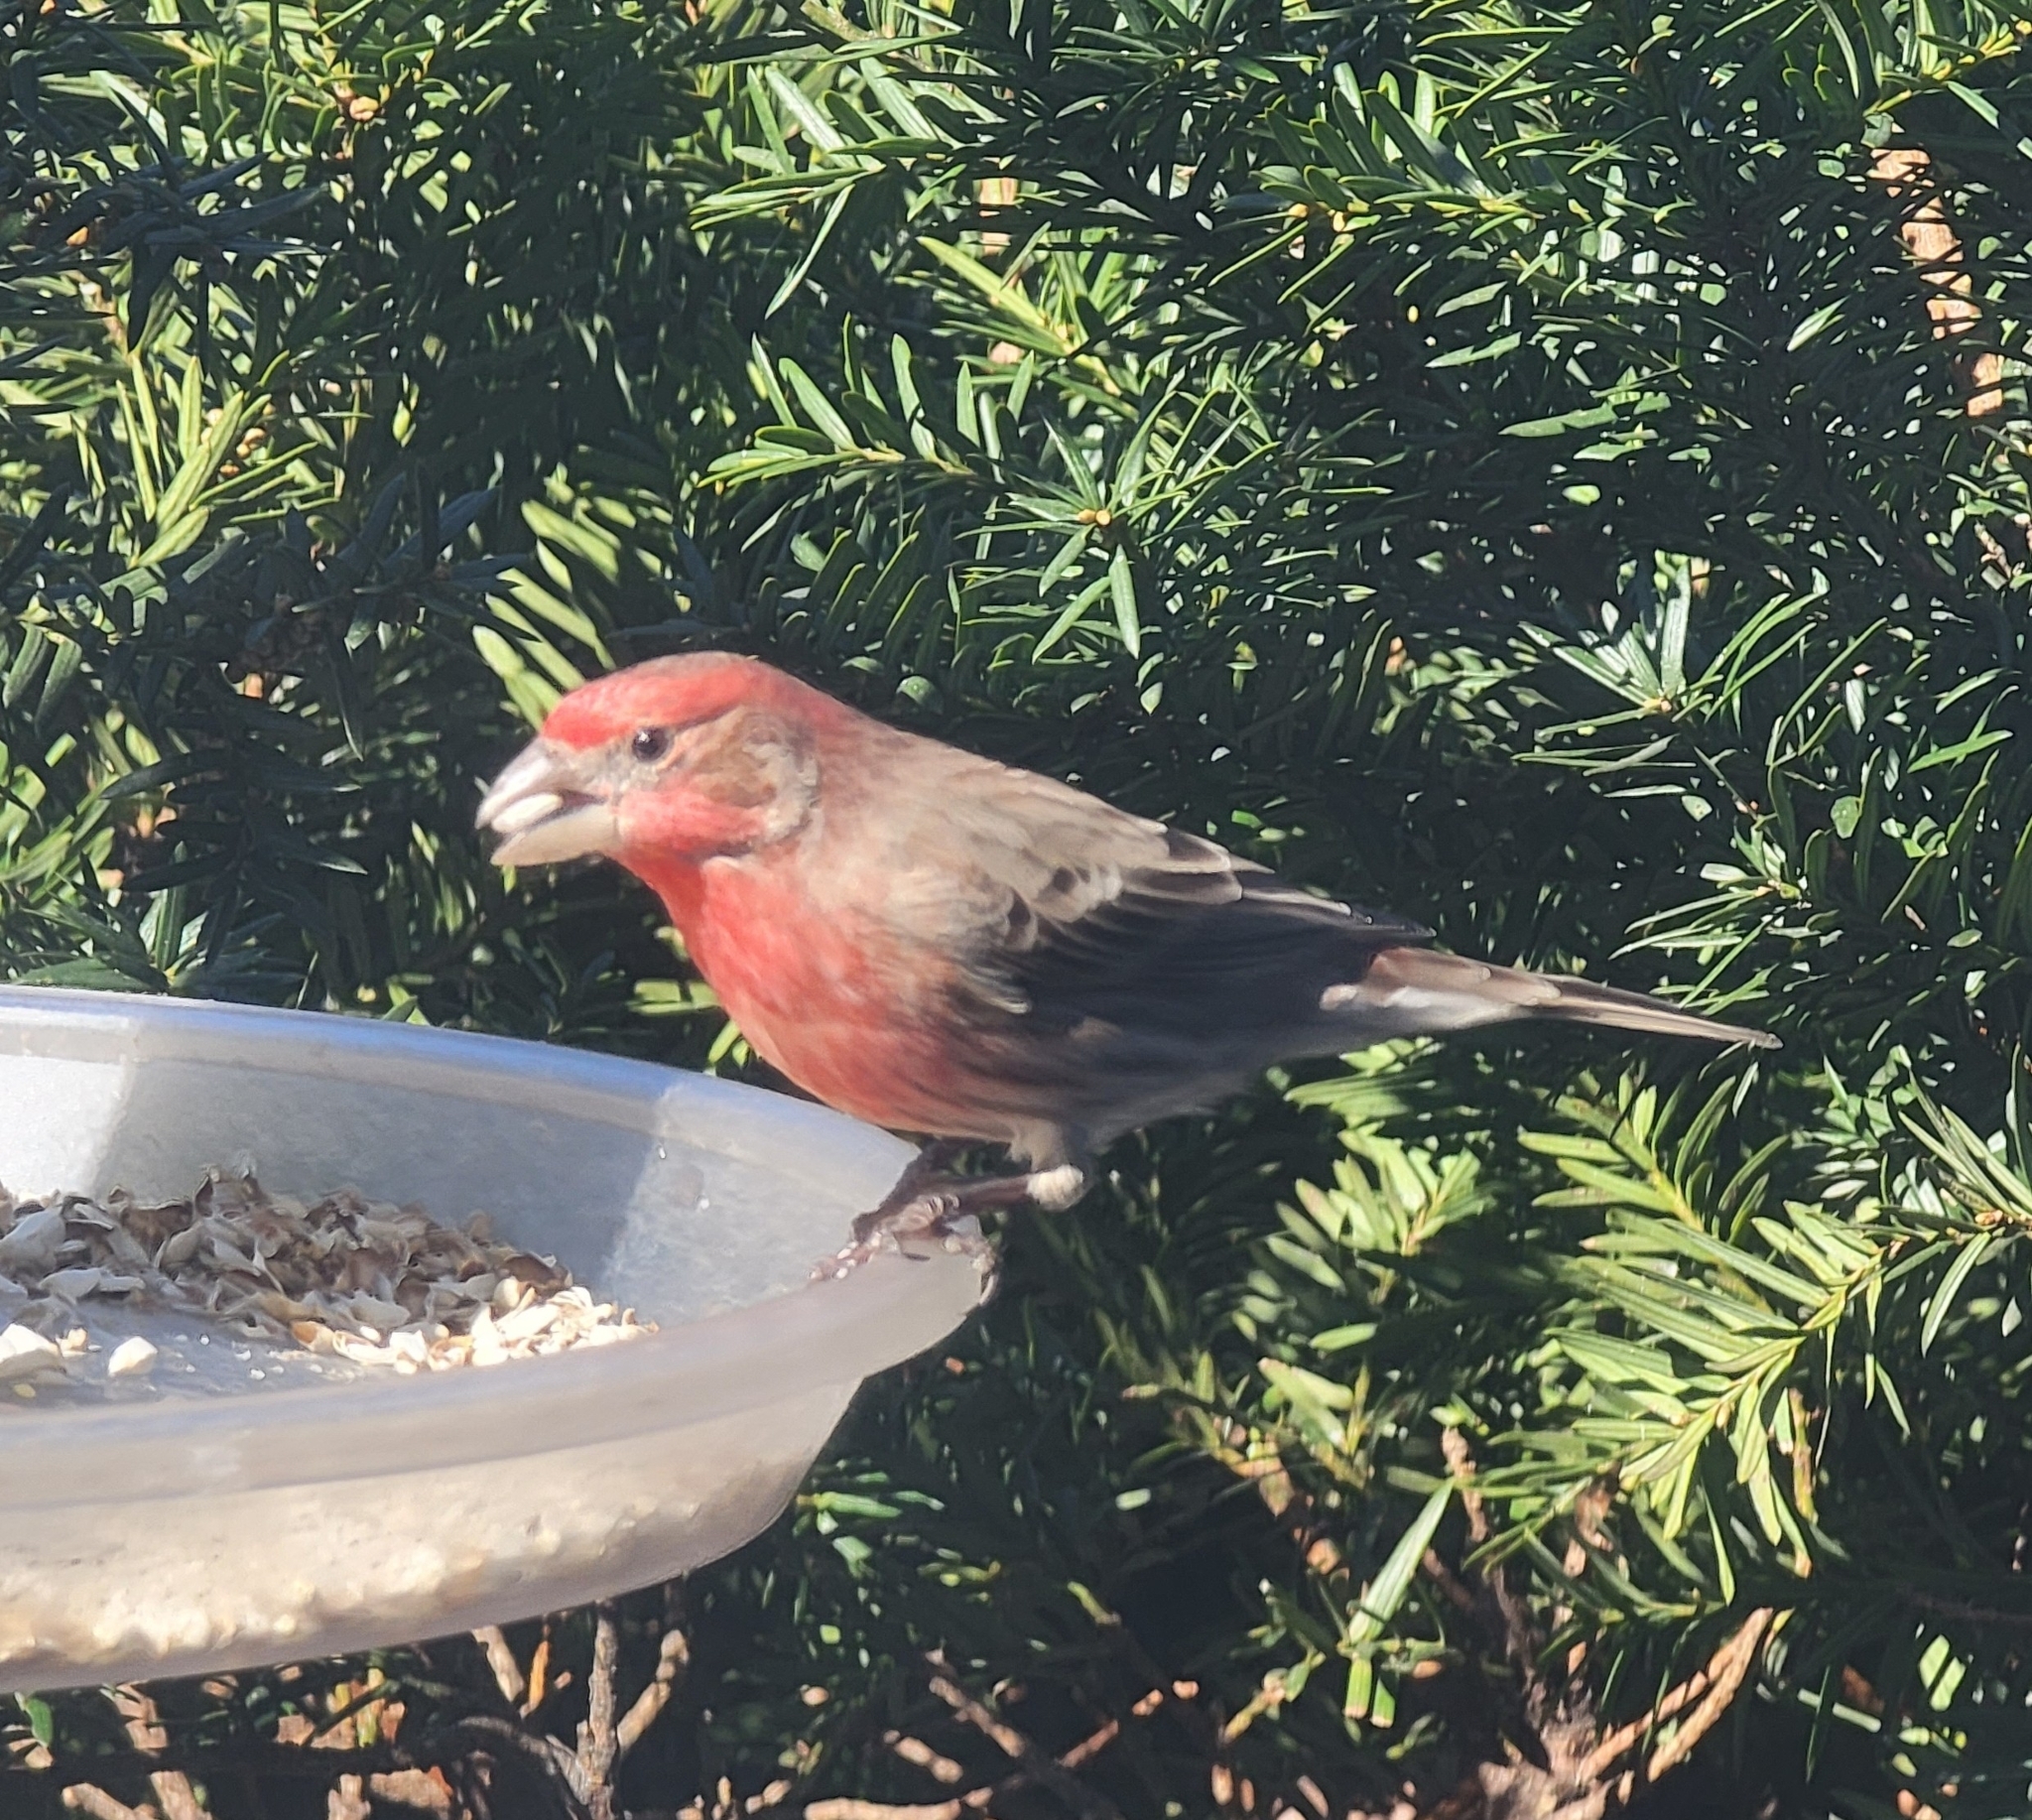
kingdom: Animalia
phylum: Chordata
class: Aves
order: Passeriformes
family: Fringillidae
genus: Haemorhous
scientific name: Haemorhous mexicanus
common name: House finch
